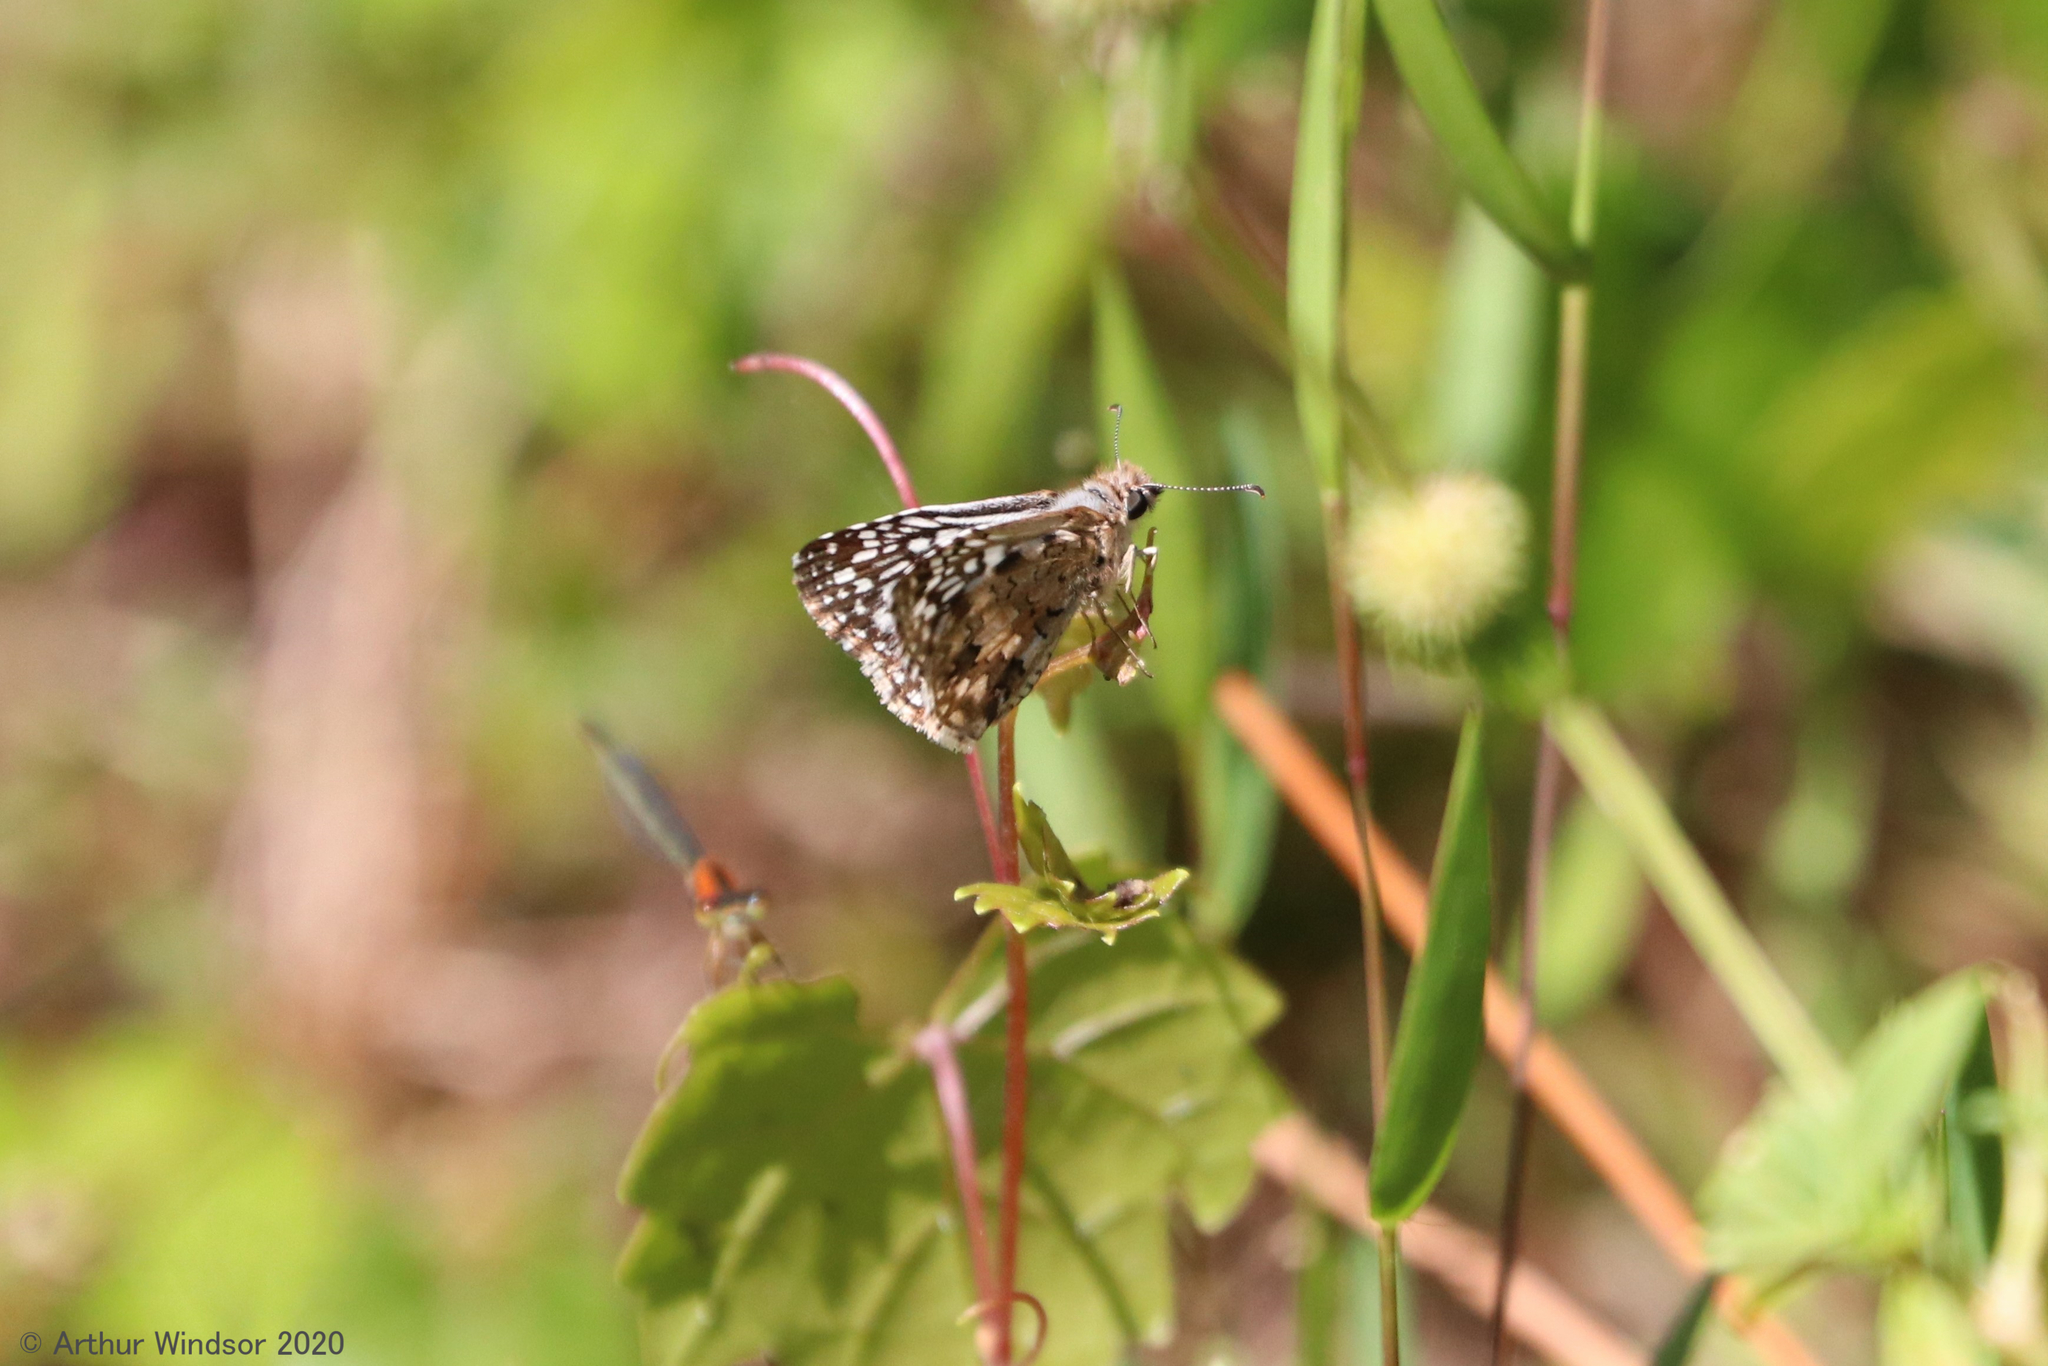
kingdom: Animalia
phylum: Arthropoda
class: Insecta
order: Lepidoptera
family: Hesperiidae
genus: Pyrgus
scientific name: Pyrgus oileus
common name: Tropical checkered-skipper
